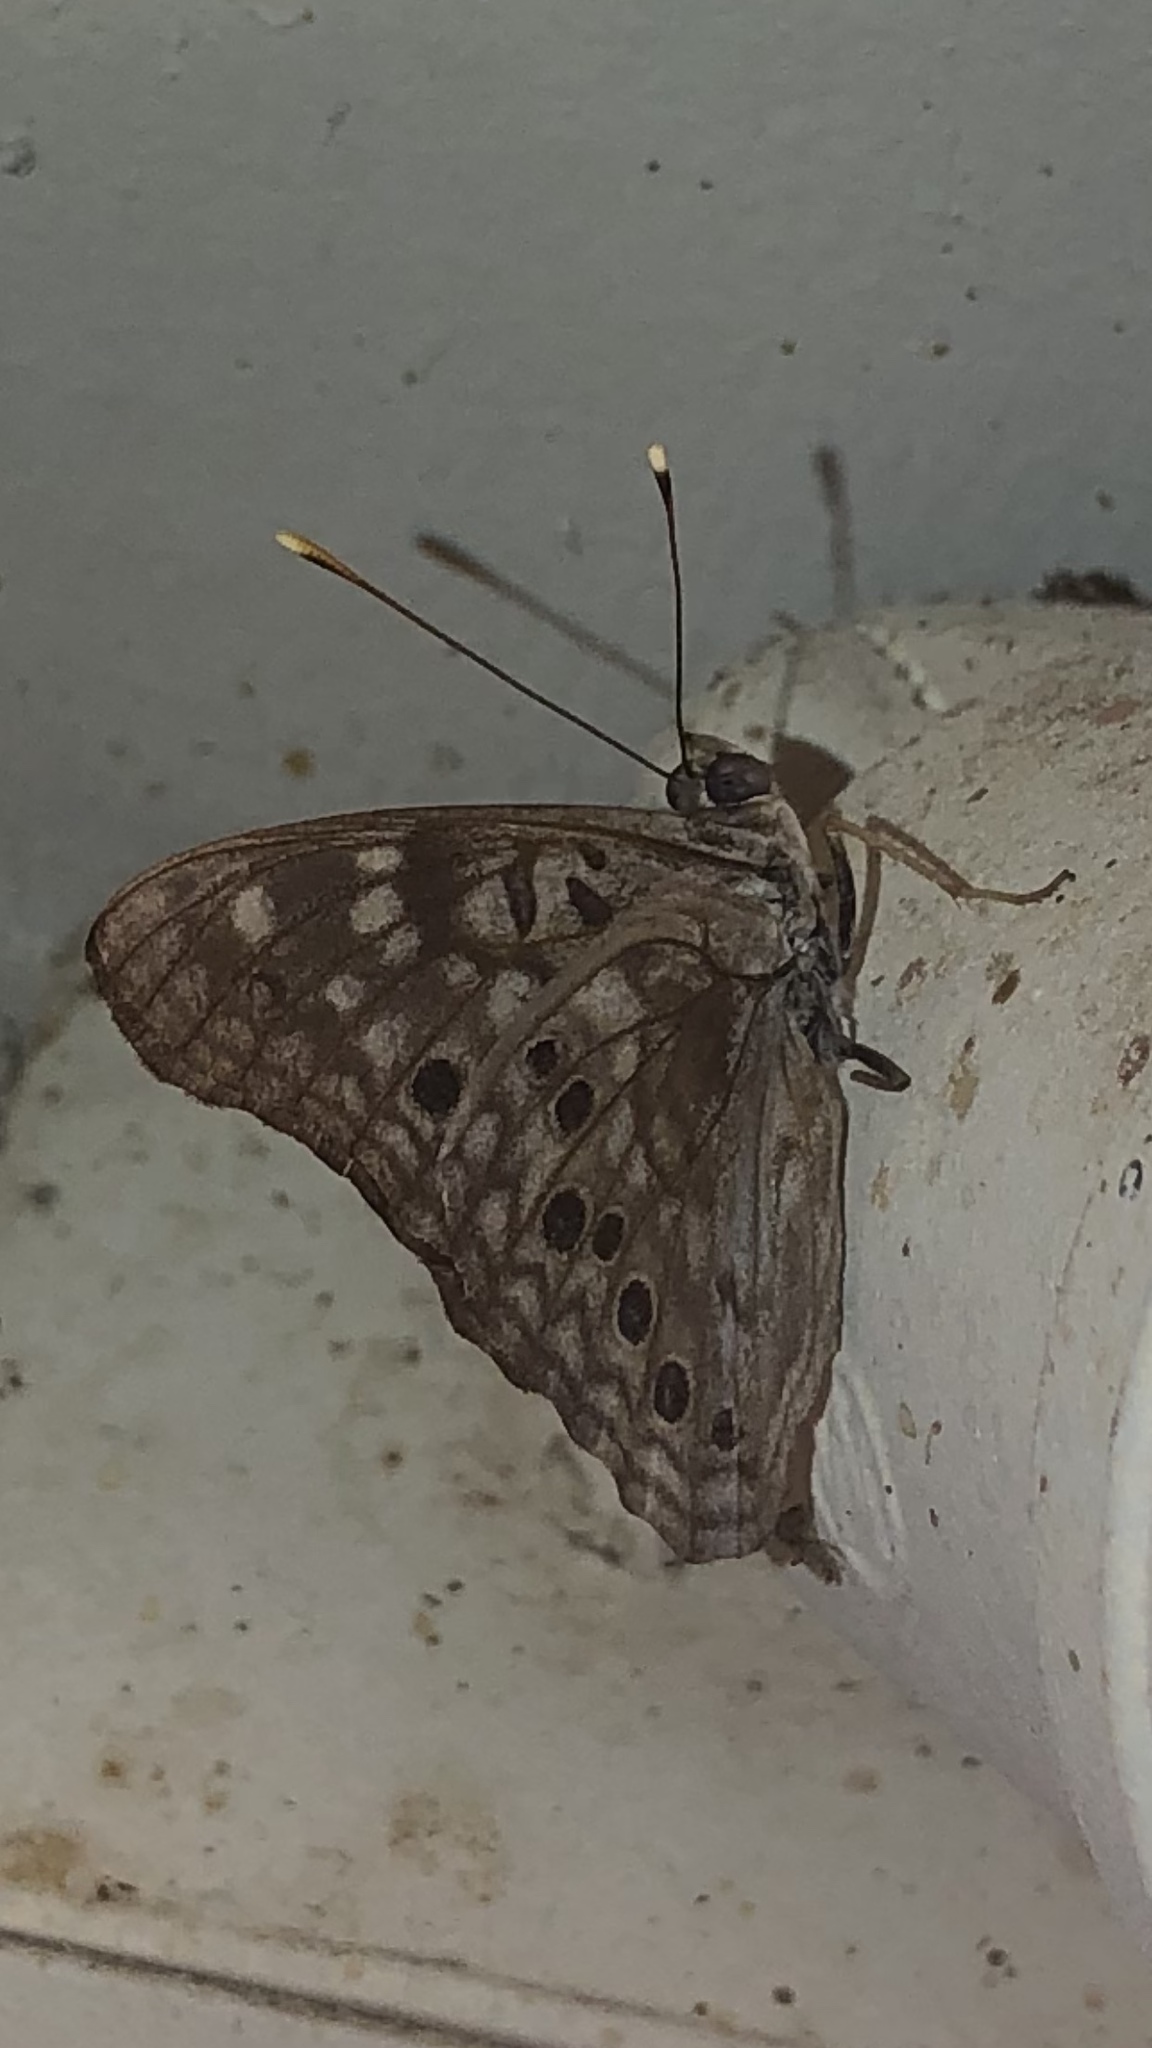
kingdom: Animalia
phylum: Arthropoda
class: Insecta
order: Lepidoptera
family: Nymphalidae
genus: Asterocampa
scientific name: Asterocampa celtis
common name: Hackberry emperor
